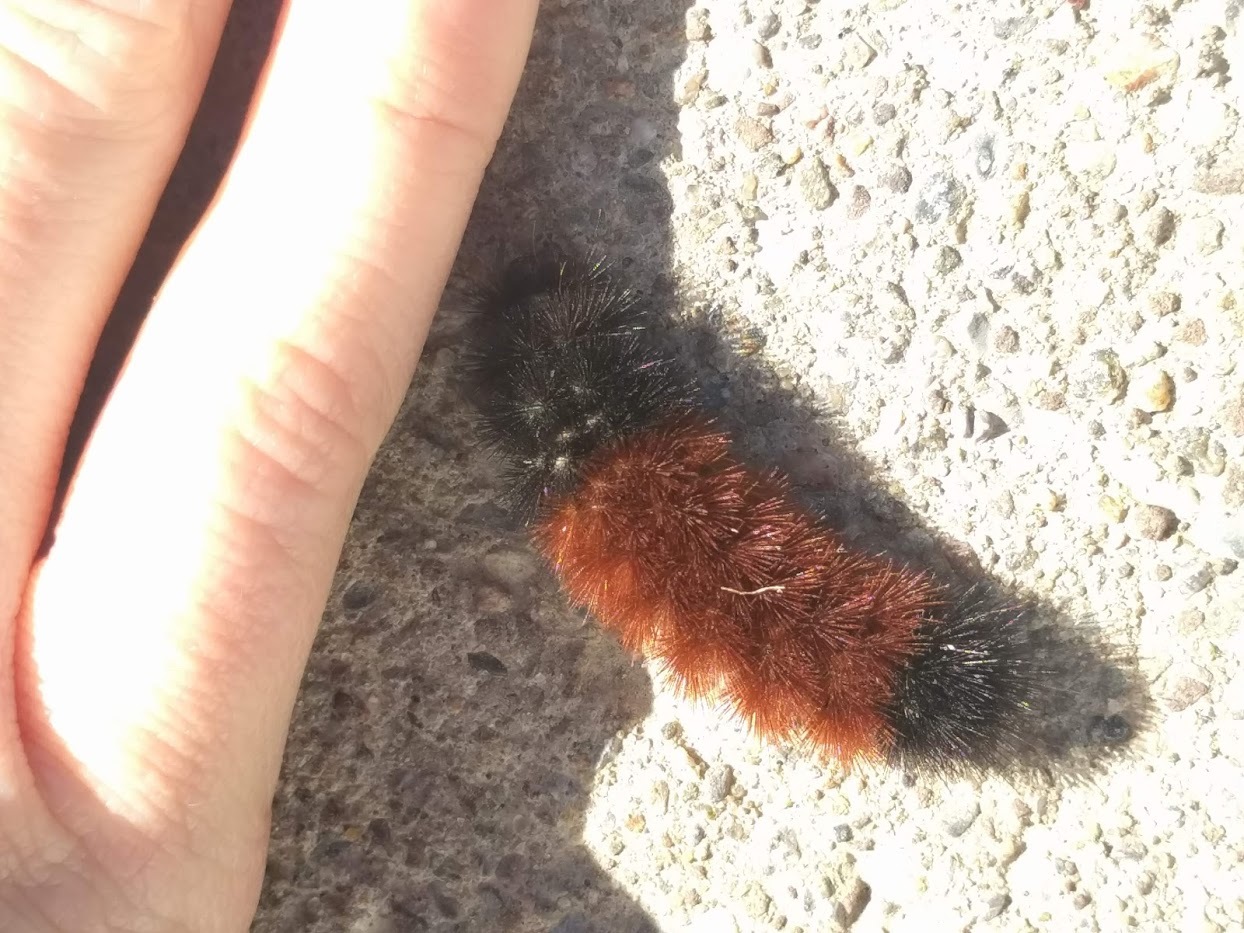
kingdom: Animalia
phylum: Arthropoda
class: Insecta
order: Lepidoptera
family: Erebidae
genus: Pyrrharctia
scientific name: Pyrrharctia isabella
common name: Isabella tiger moth
